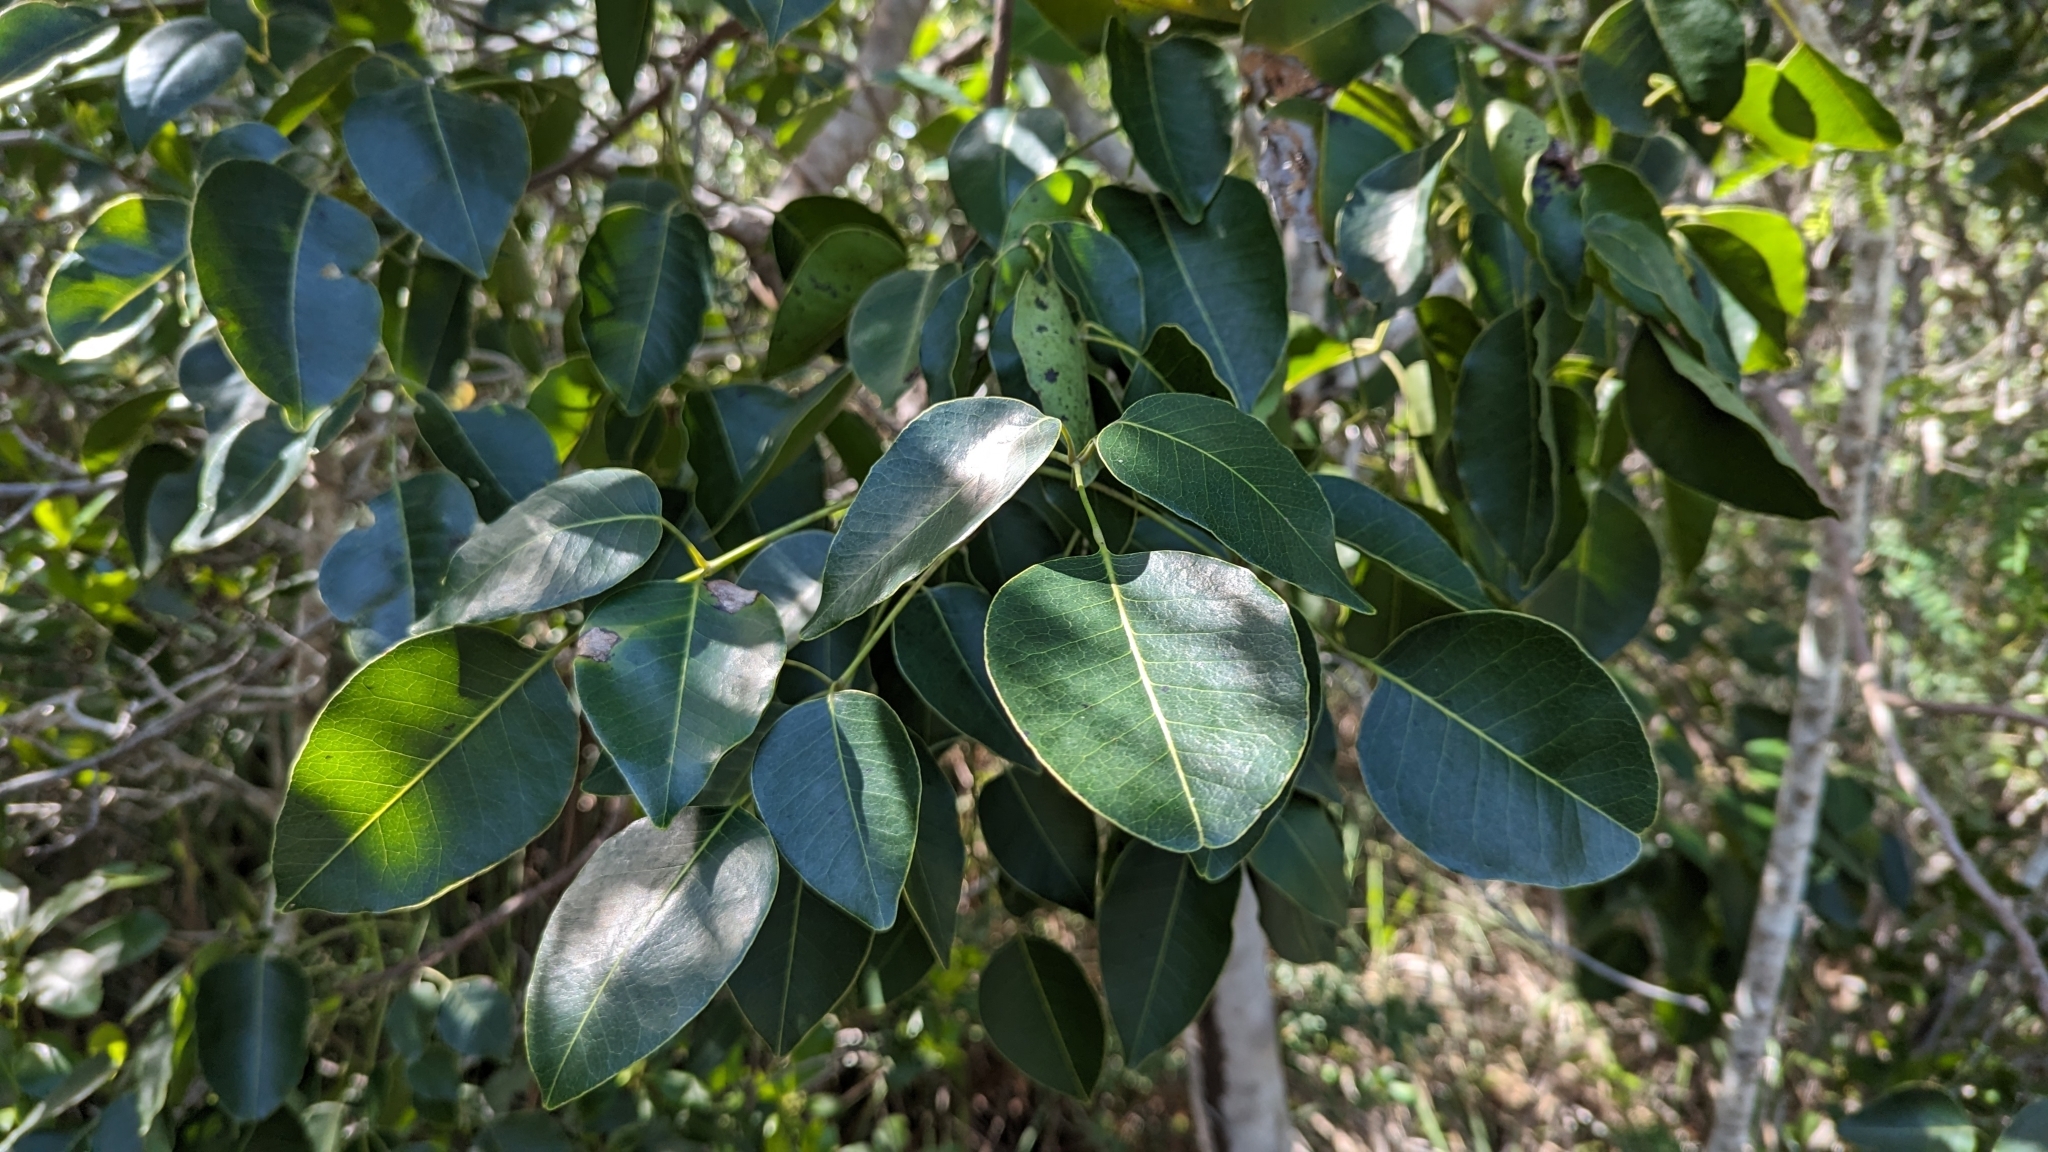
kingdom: Plantae
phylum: Tracheophyta
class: Magnoliopsida
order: Sapindales
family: Anacardiaceae
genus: Metopium
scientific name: Metopium toxiferum
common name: Florida poisontree
